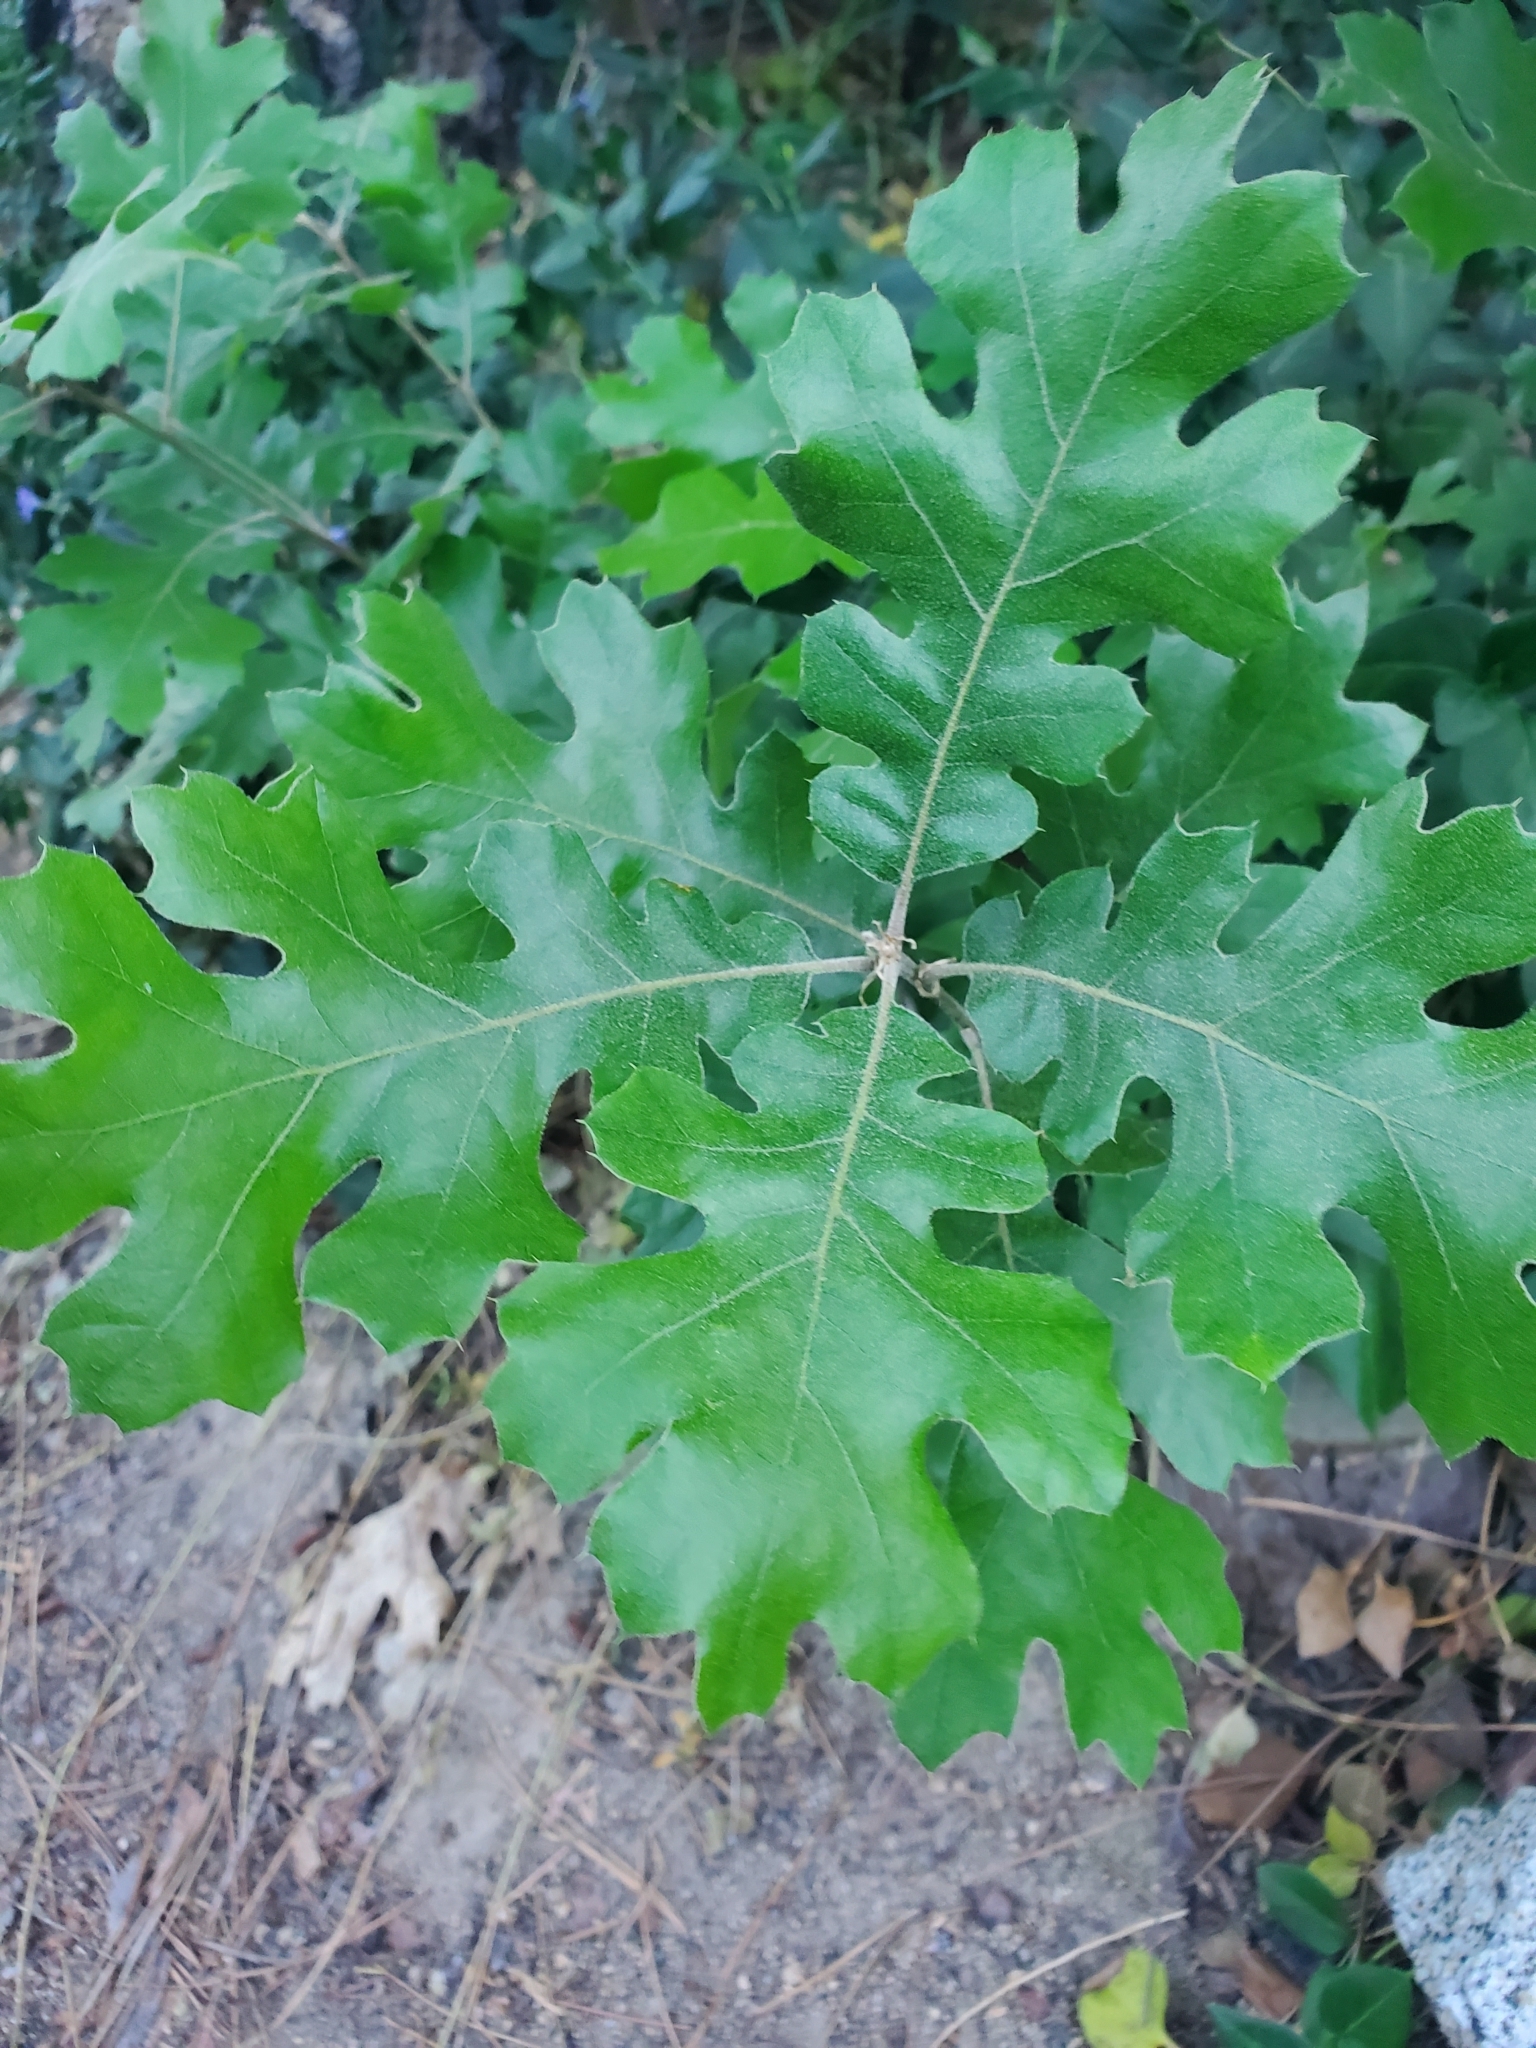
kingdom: Plantae
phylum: Tracheophyta
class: Magnoliopsida
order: Fagales
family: Fagaceae
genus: Quercus
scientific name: Quercus kelloggii
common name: California black oak
